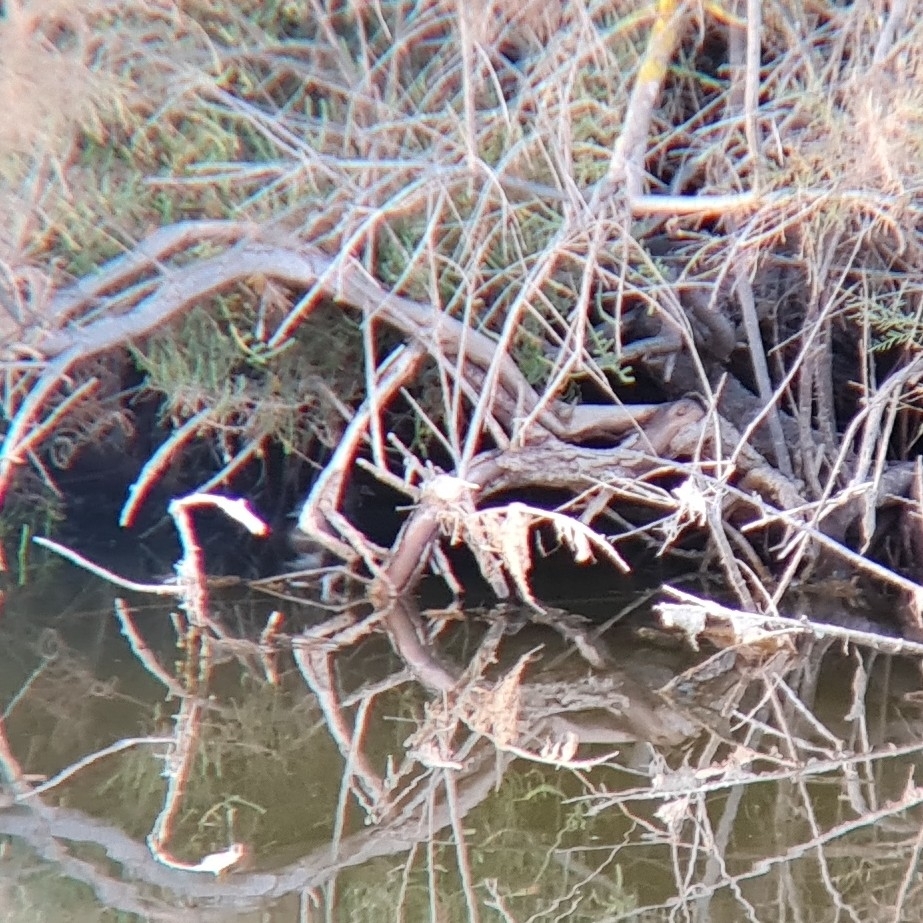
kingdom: Animalia
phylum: Chordata
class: Aves
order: Podicipediformes
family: Podicipedidae
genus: Tachybaptus
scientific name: Tachybaptus ruficollis
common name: Little grebe
